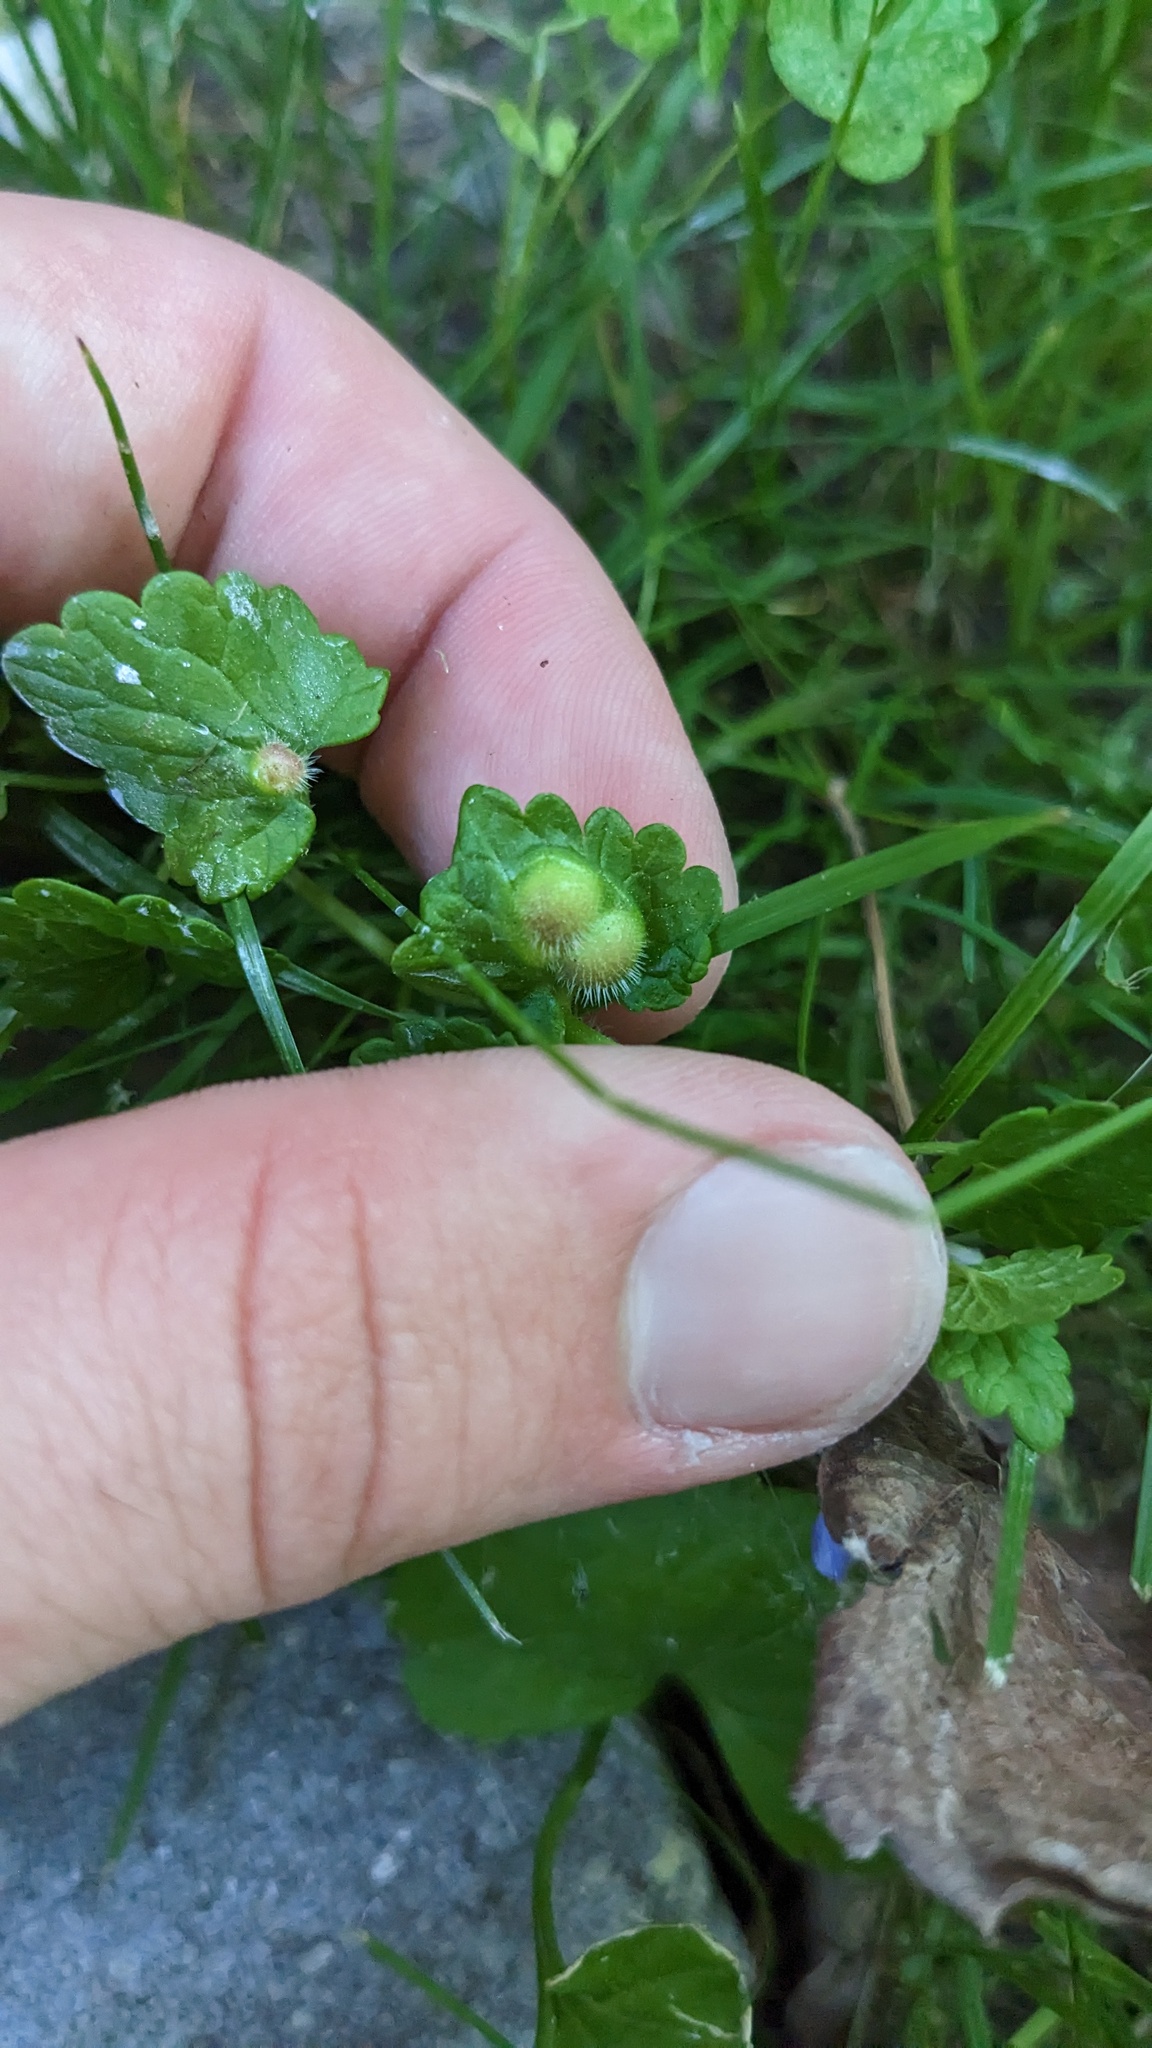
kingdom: Animalia
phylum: Arthropoda
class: Insecta
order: Hymenoptera
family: Cynipidae
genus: Liposthenes
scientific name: Liposthenes glechomae
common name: Gall wasp
